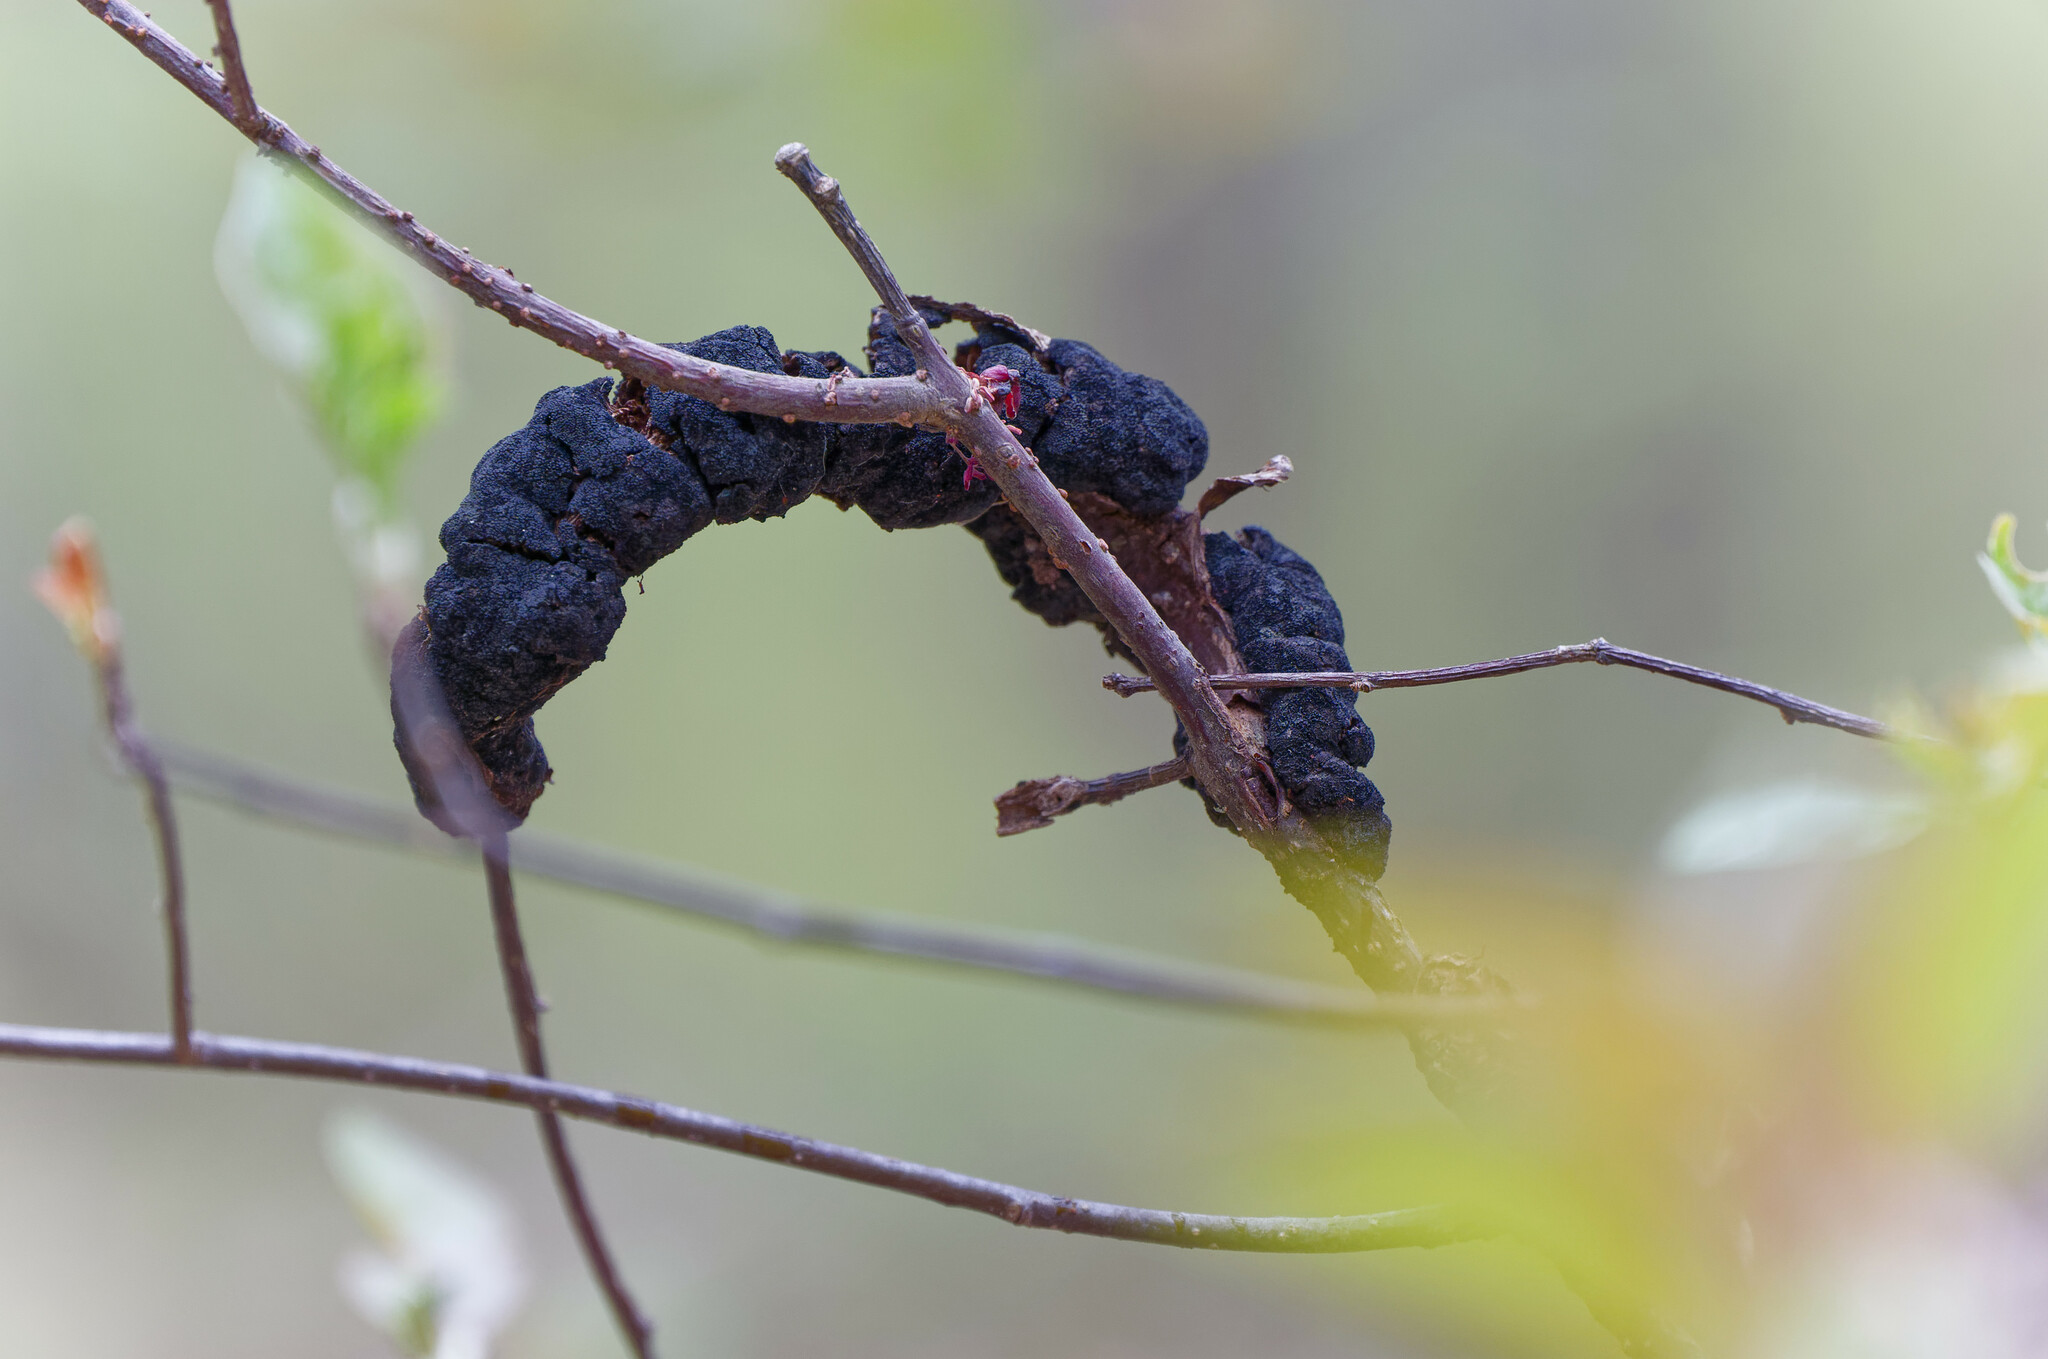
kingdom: Fungi
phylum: Ascomycota
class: Dothideomycetes
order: Venturiales
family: Venturiaceae
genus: Apiosporina
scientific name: Apiosporina morbosa
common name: Black knot
